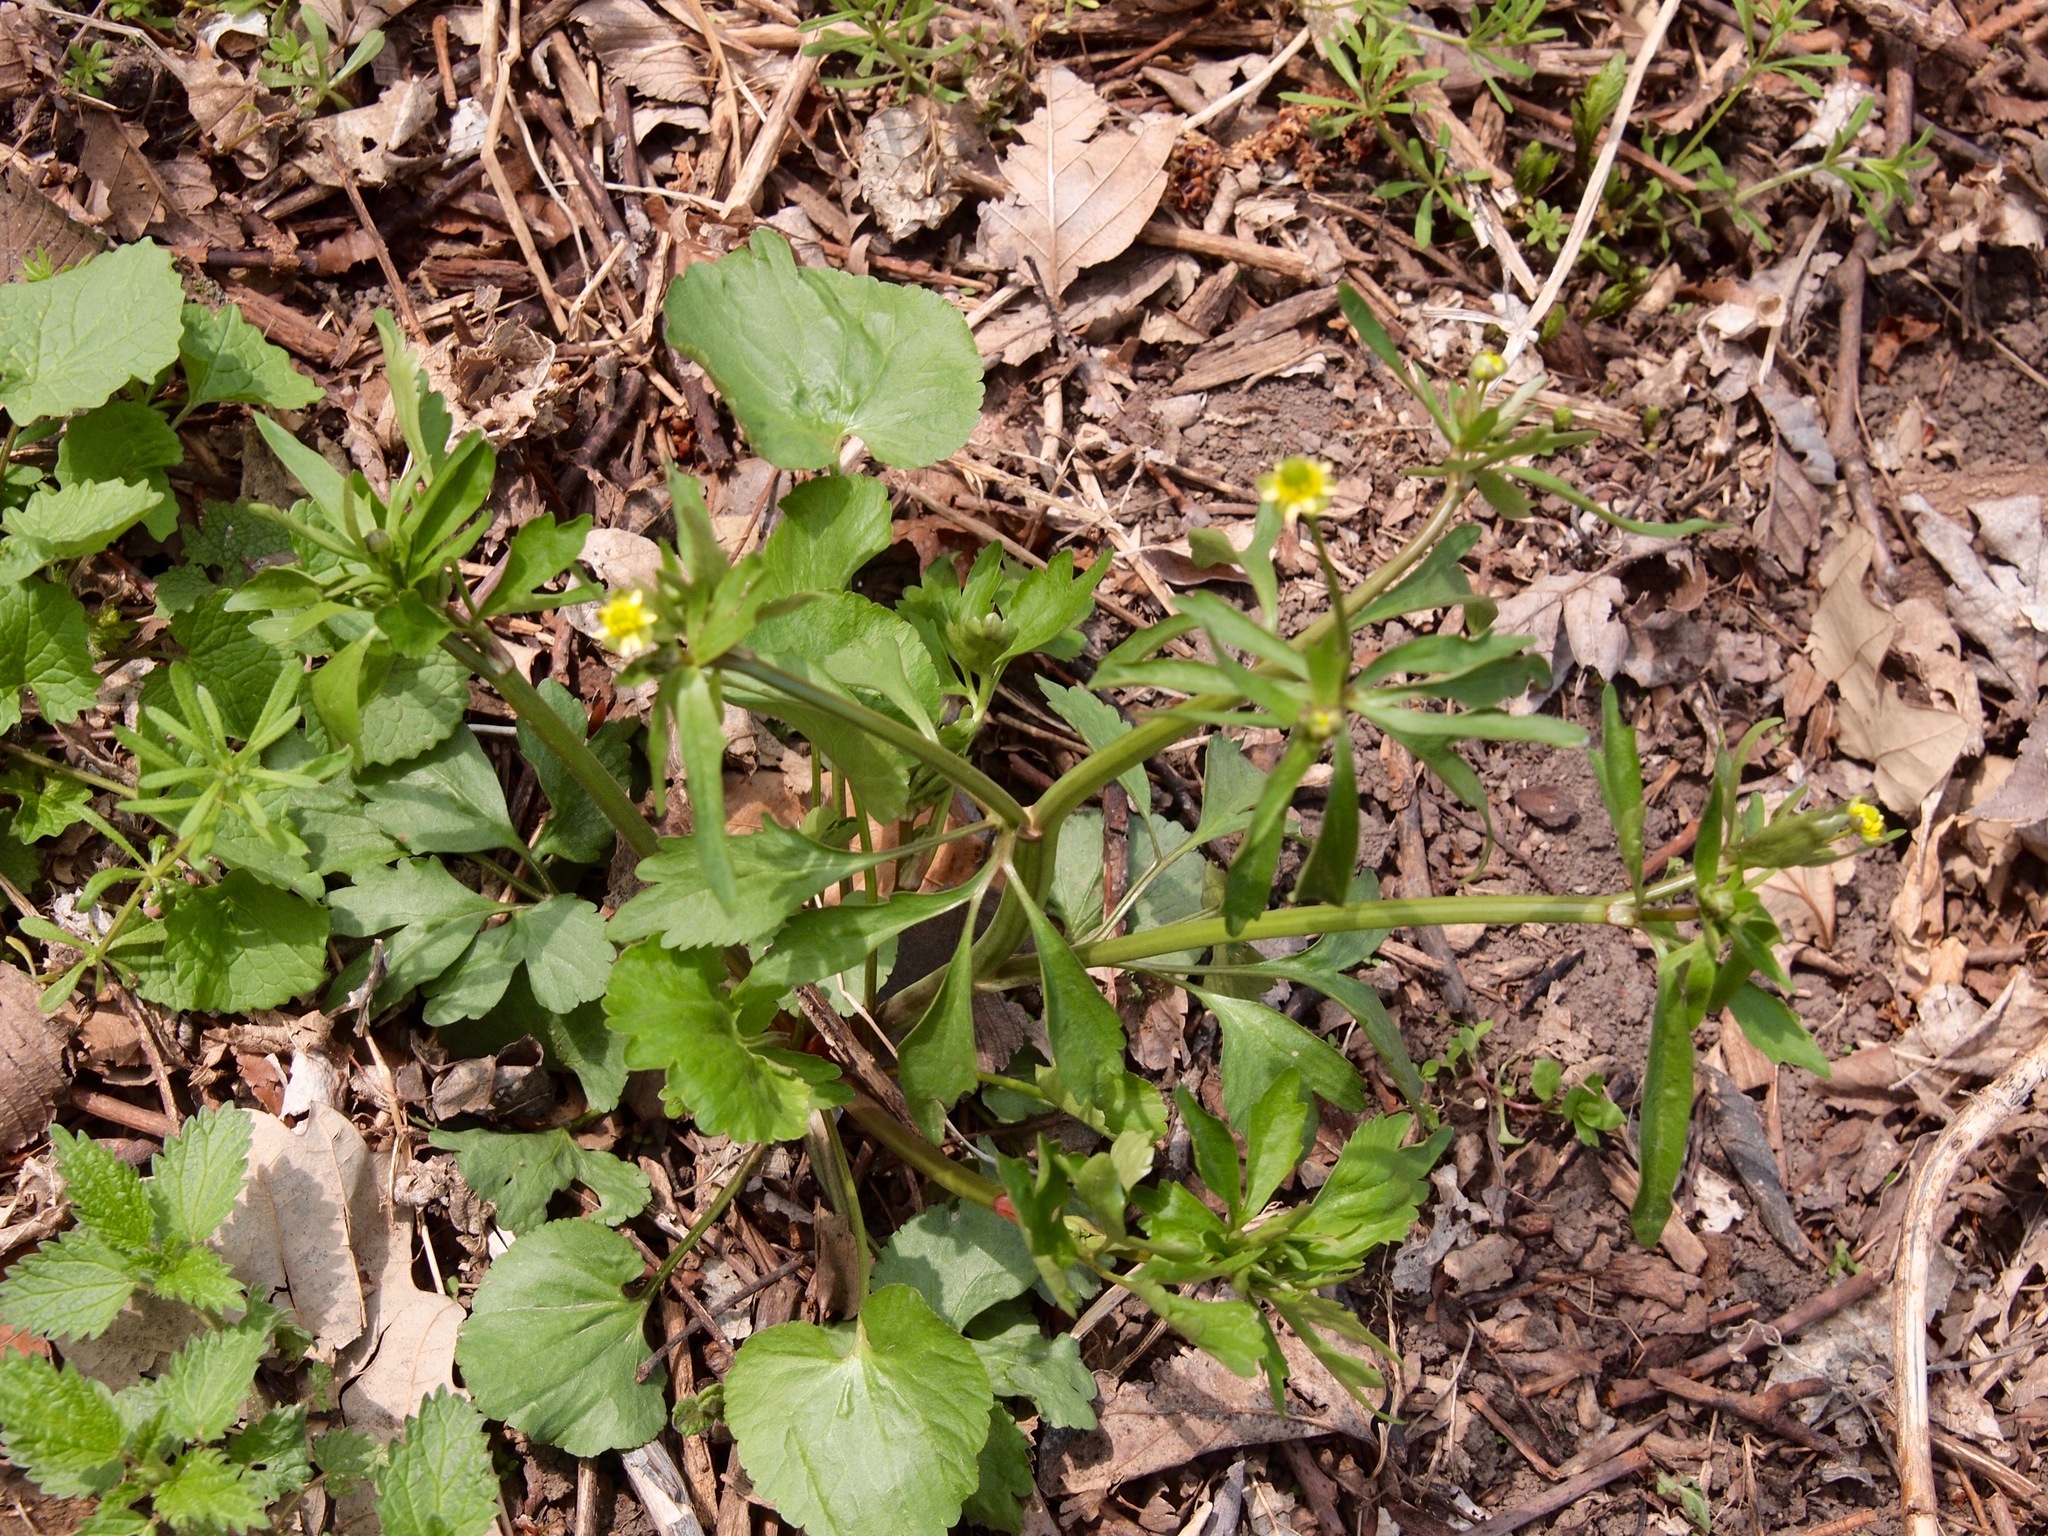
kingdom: Plantae
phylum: Tracheophyta
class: Magnoliopsida
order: Ranunculales
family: Ranunculaceae
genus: Ranunculus
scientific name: Ranunculus abortivus
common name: Early wood buttercup
